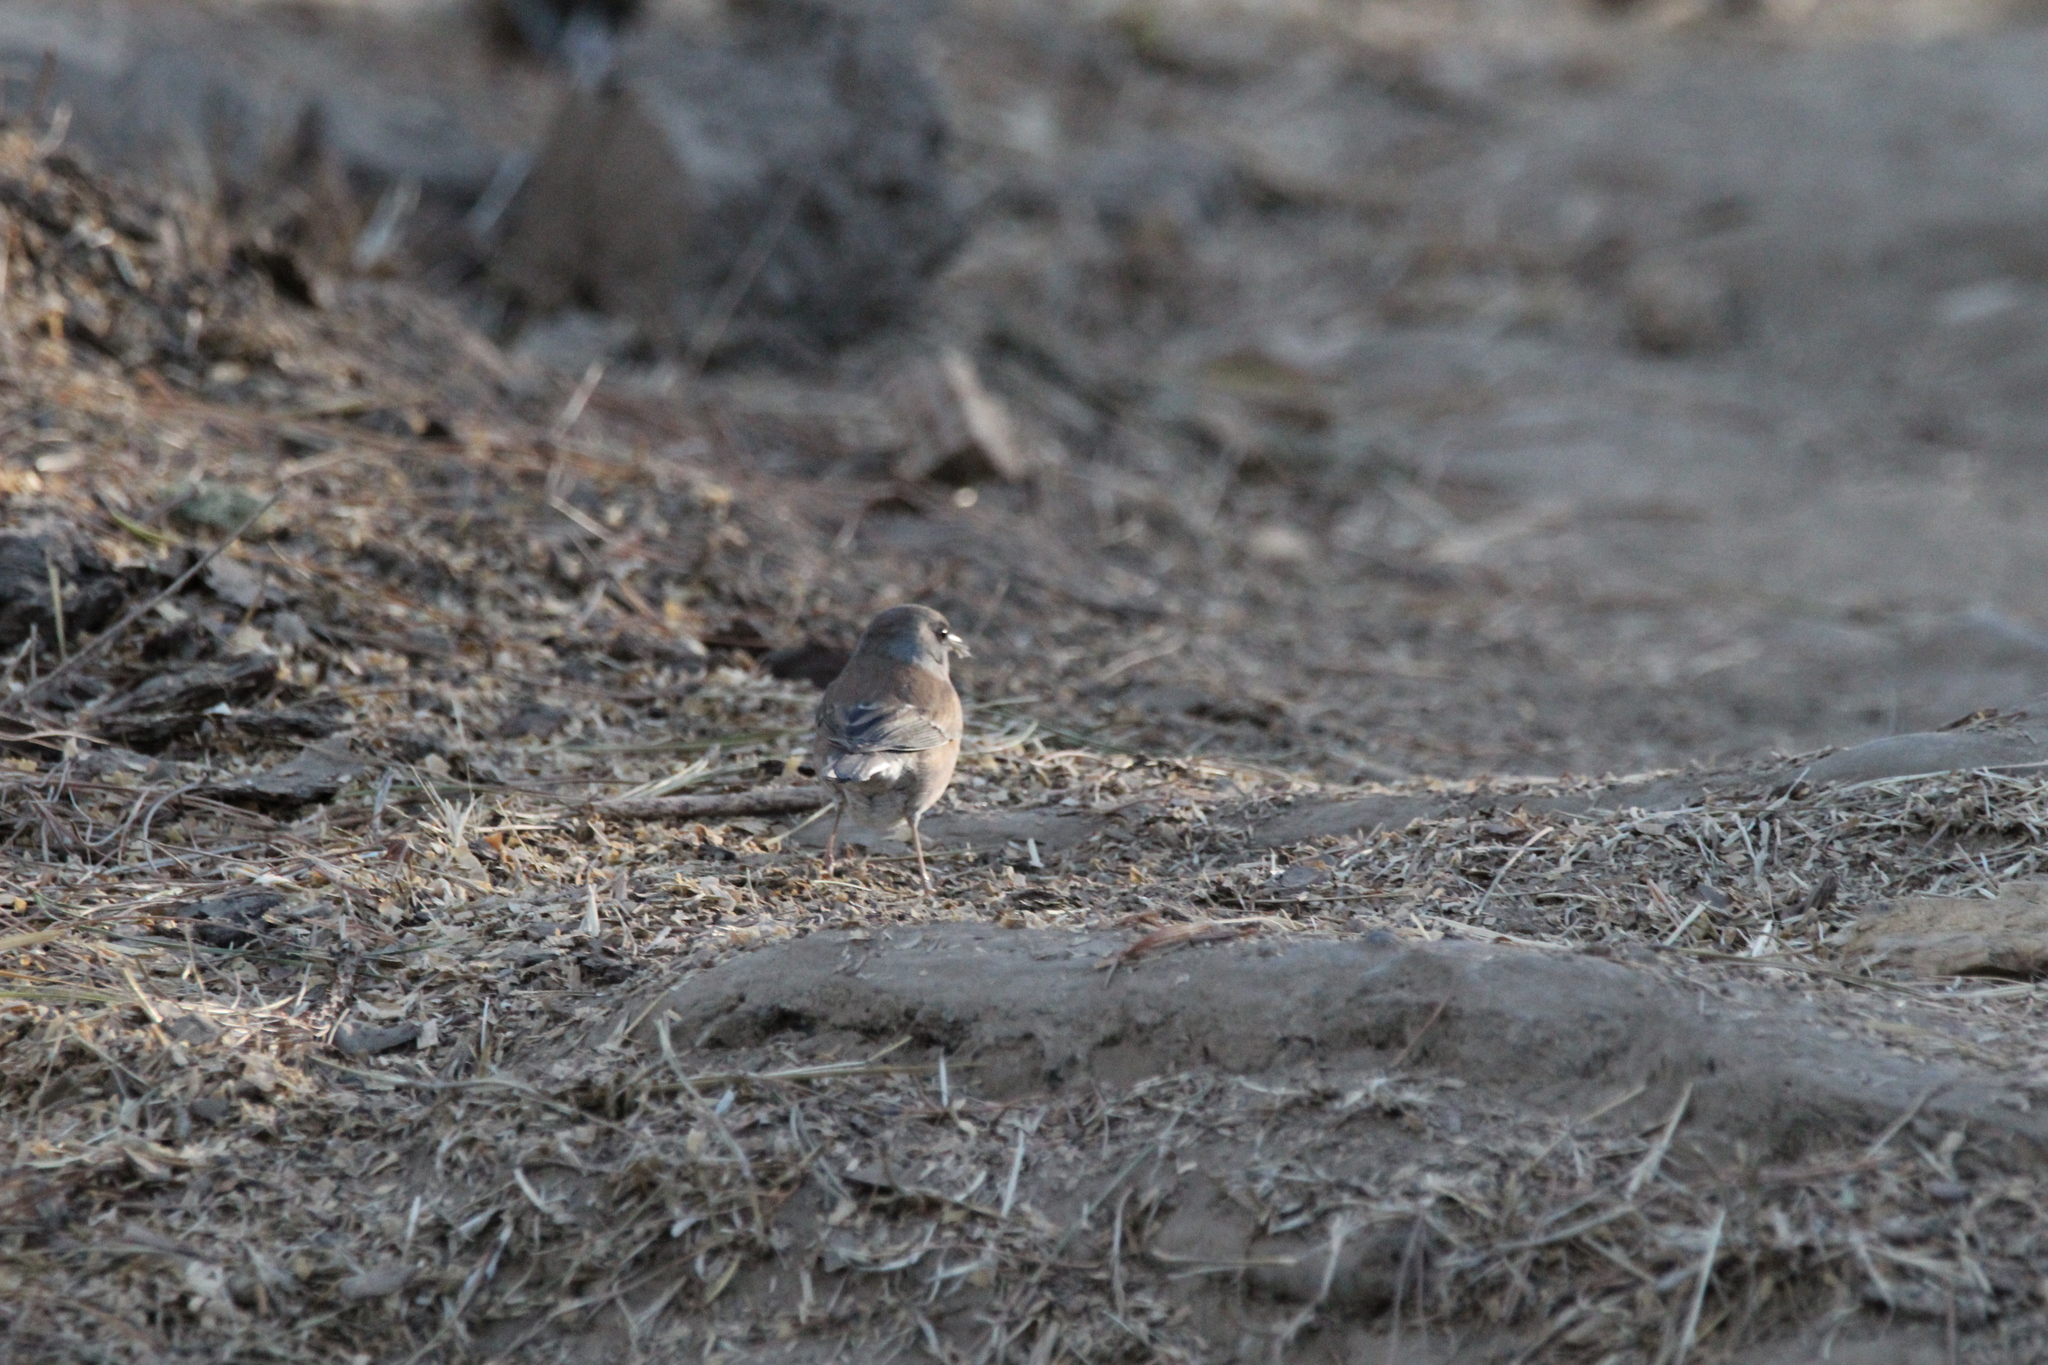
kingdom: Animalia
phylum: Chordata
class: Aves
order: Passeriformes
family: Passerellidae
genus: Junco
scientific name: Junco hyemalis
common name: Dark-eyed junco
